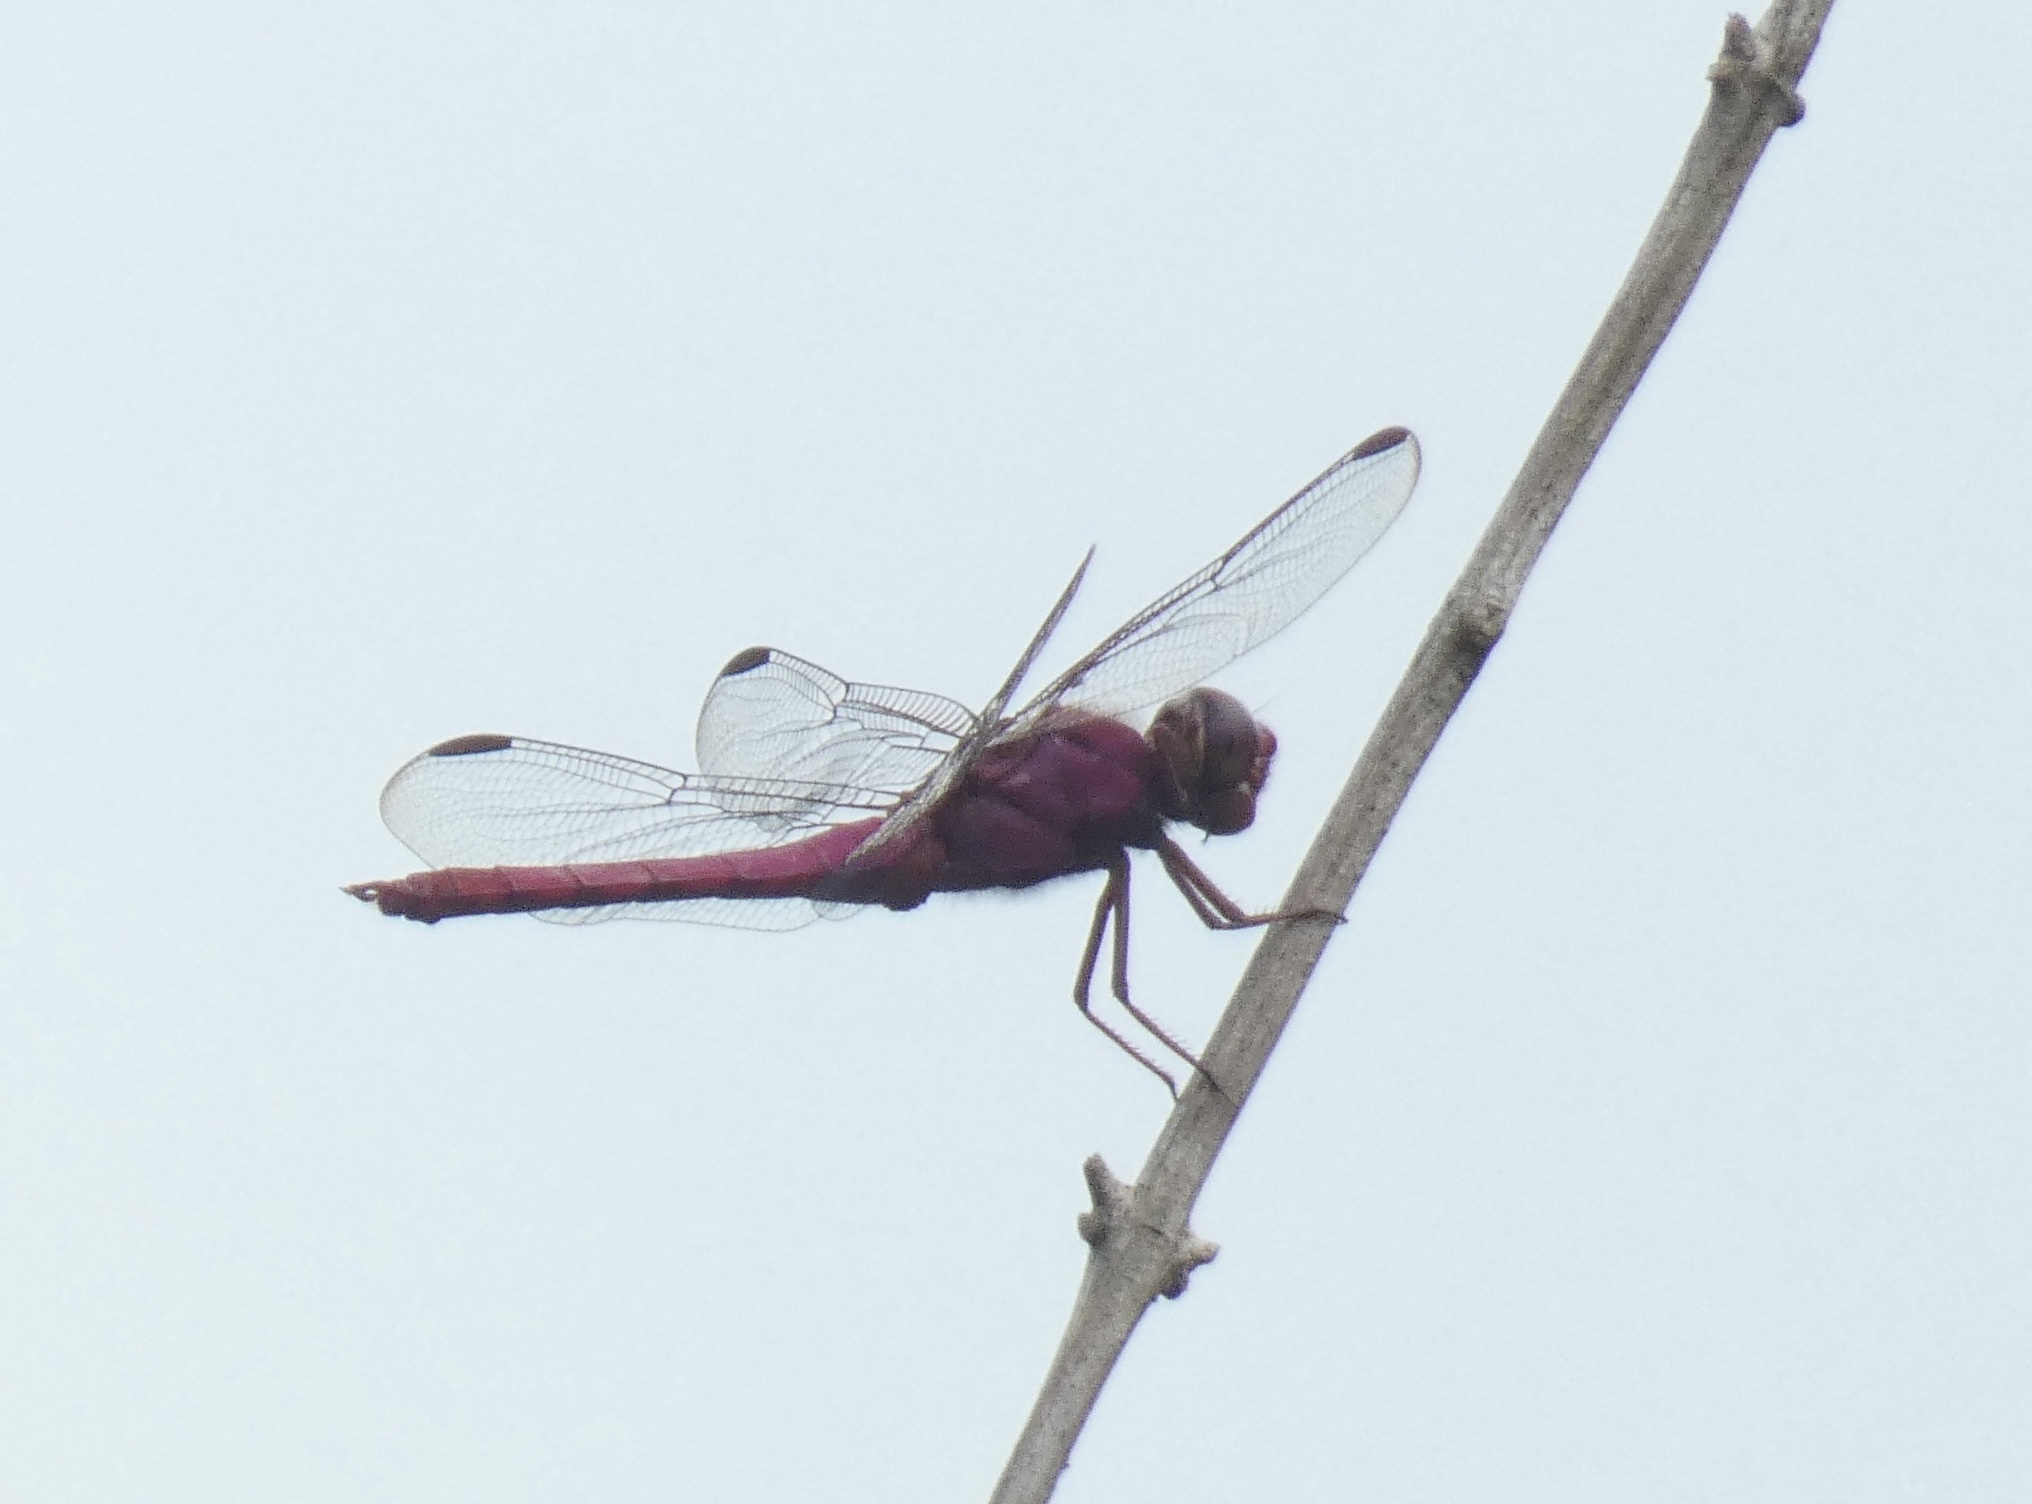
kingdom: Animalia
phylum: Arthropoda
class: Insecta
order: Odonata
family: Libellulidae
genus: Orthemis
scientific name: Orthemis discolor
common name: Carmine skimmer
